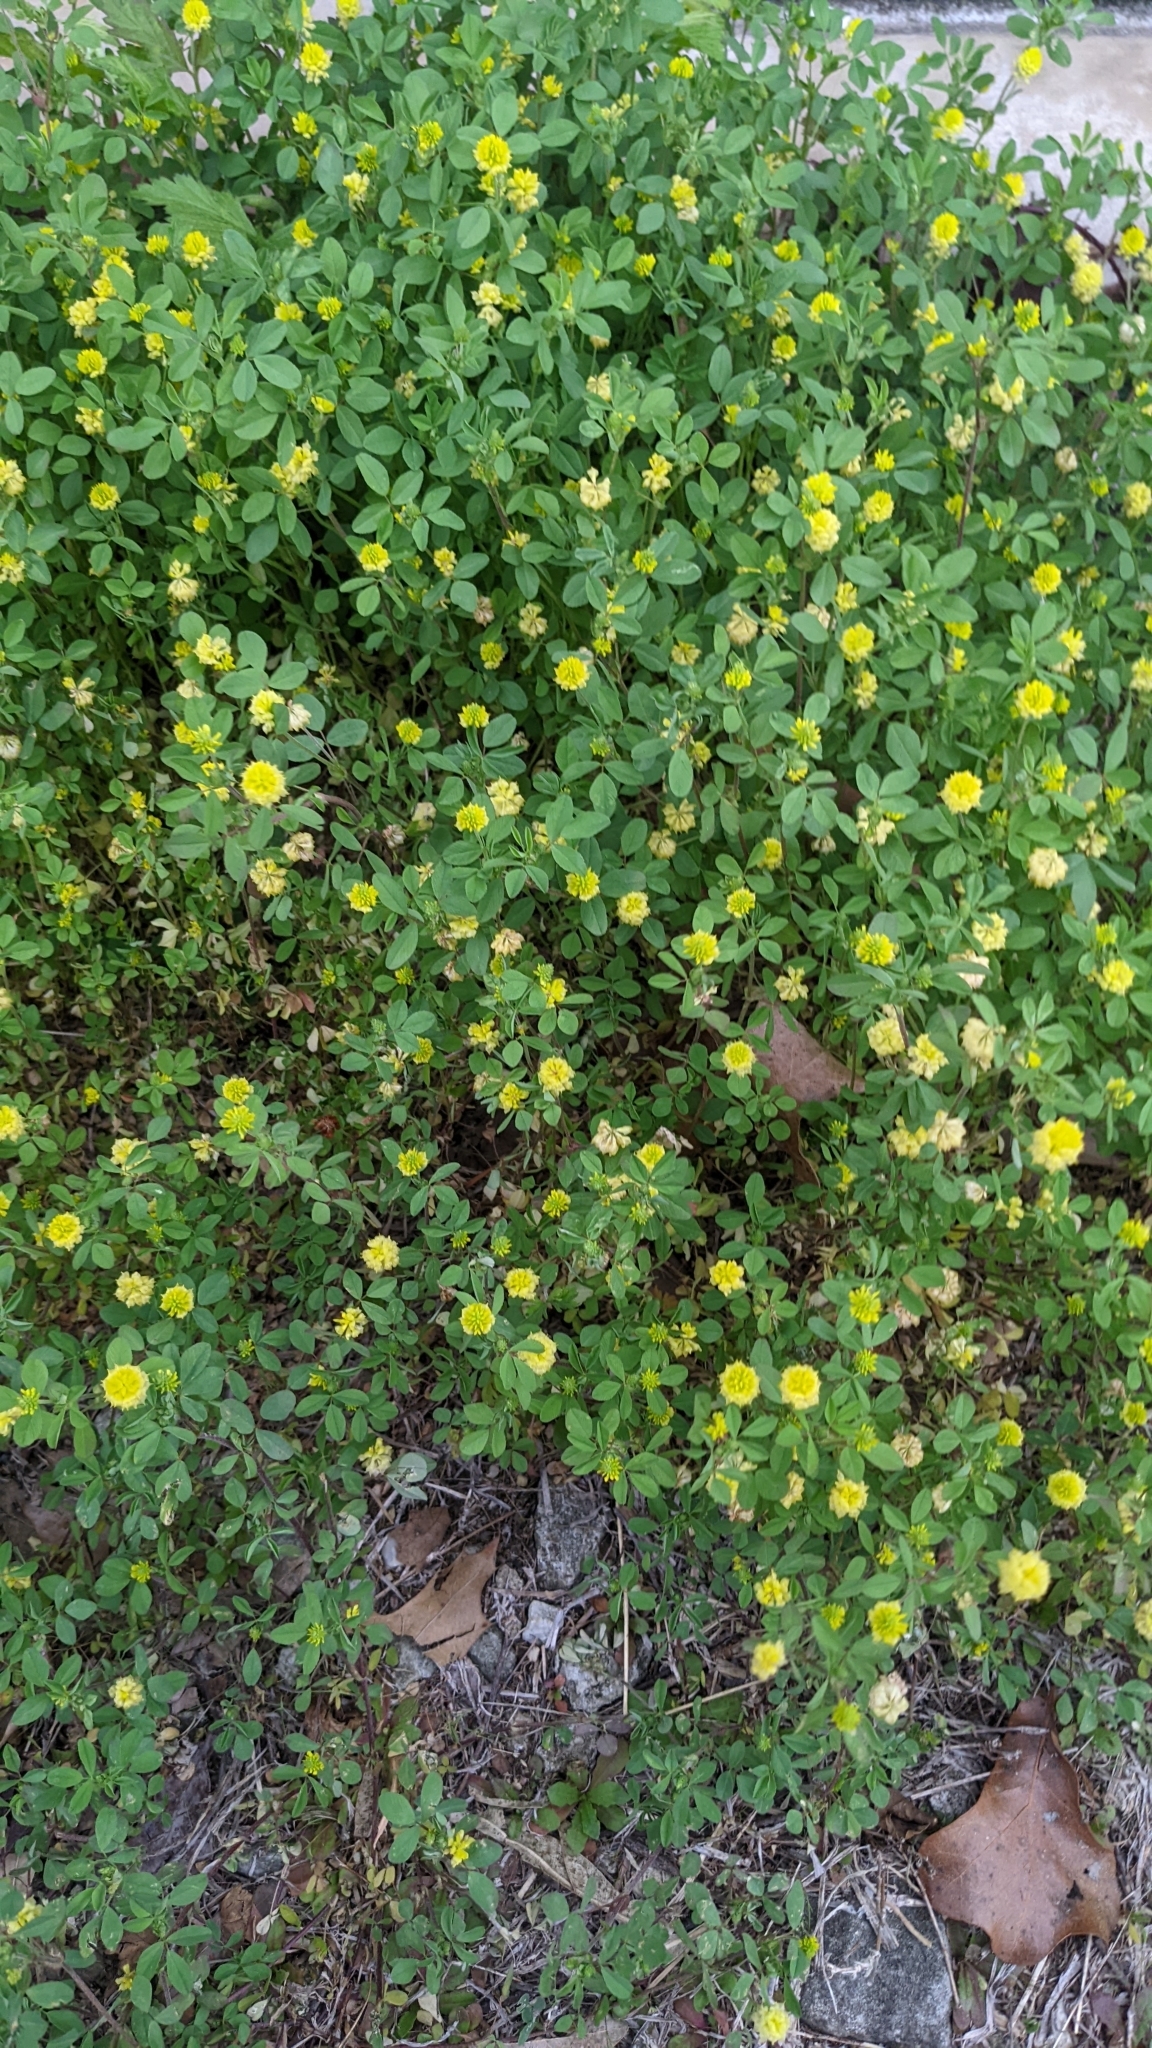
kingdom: Plantae
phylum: Tracheophyta
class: Magnoliopsida
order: Fabales
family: Fabaceae
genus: Trifolium
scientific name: Trifolium campestre
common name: Field clover
